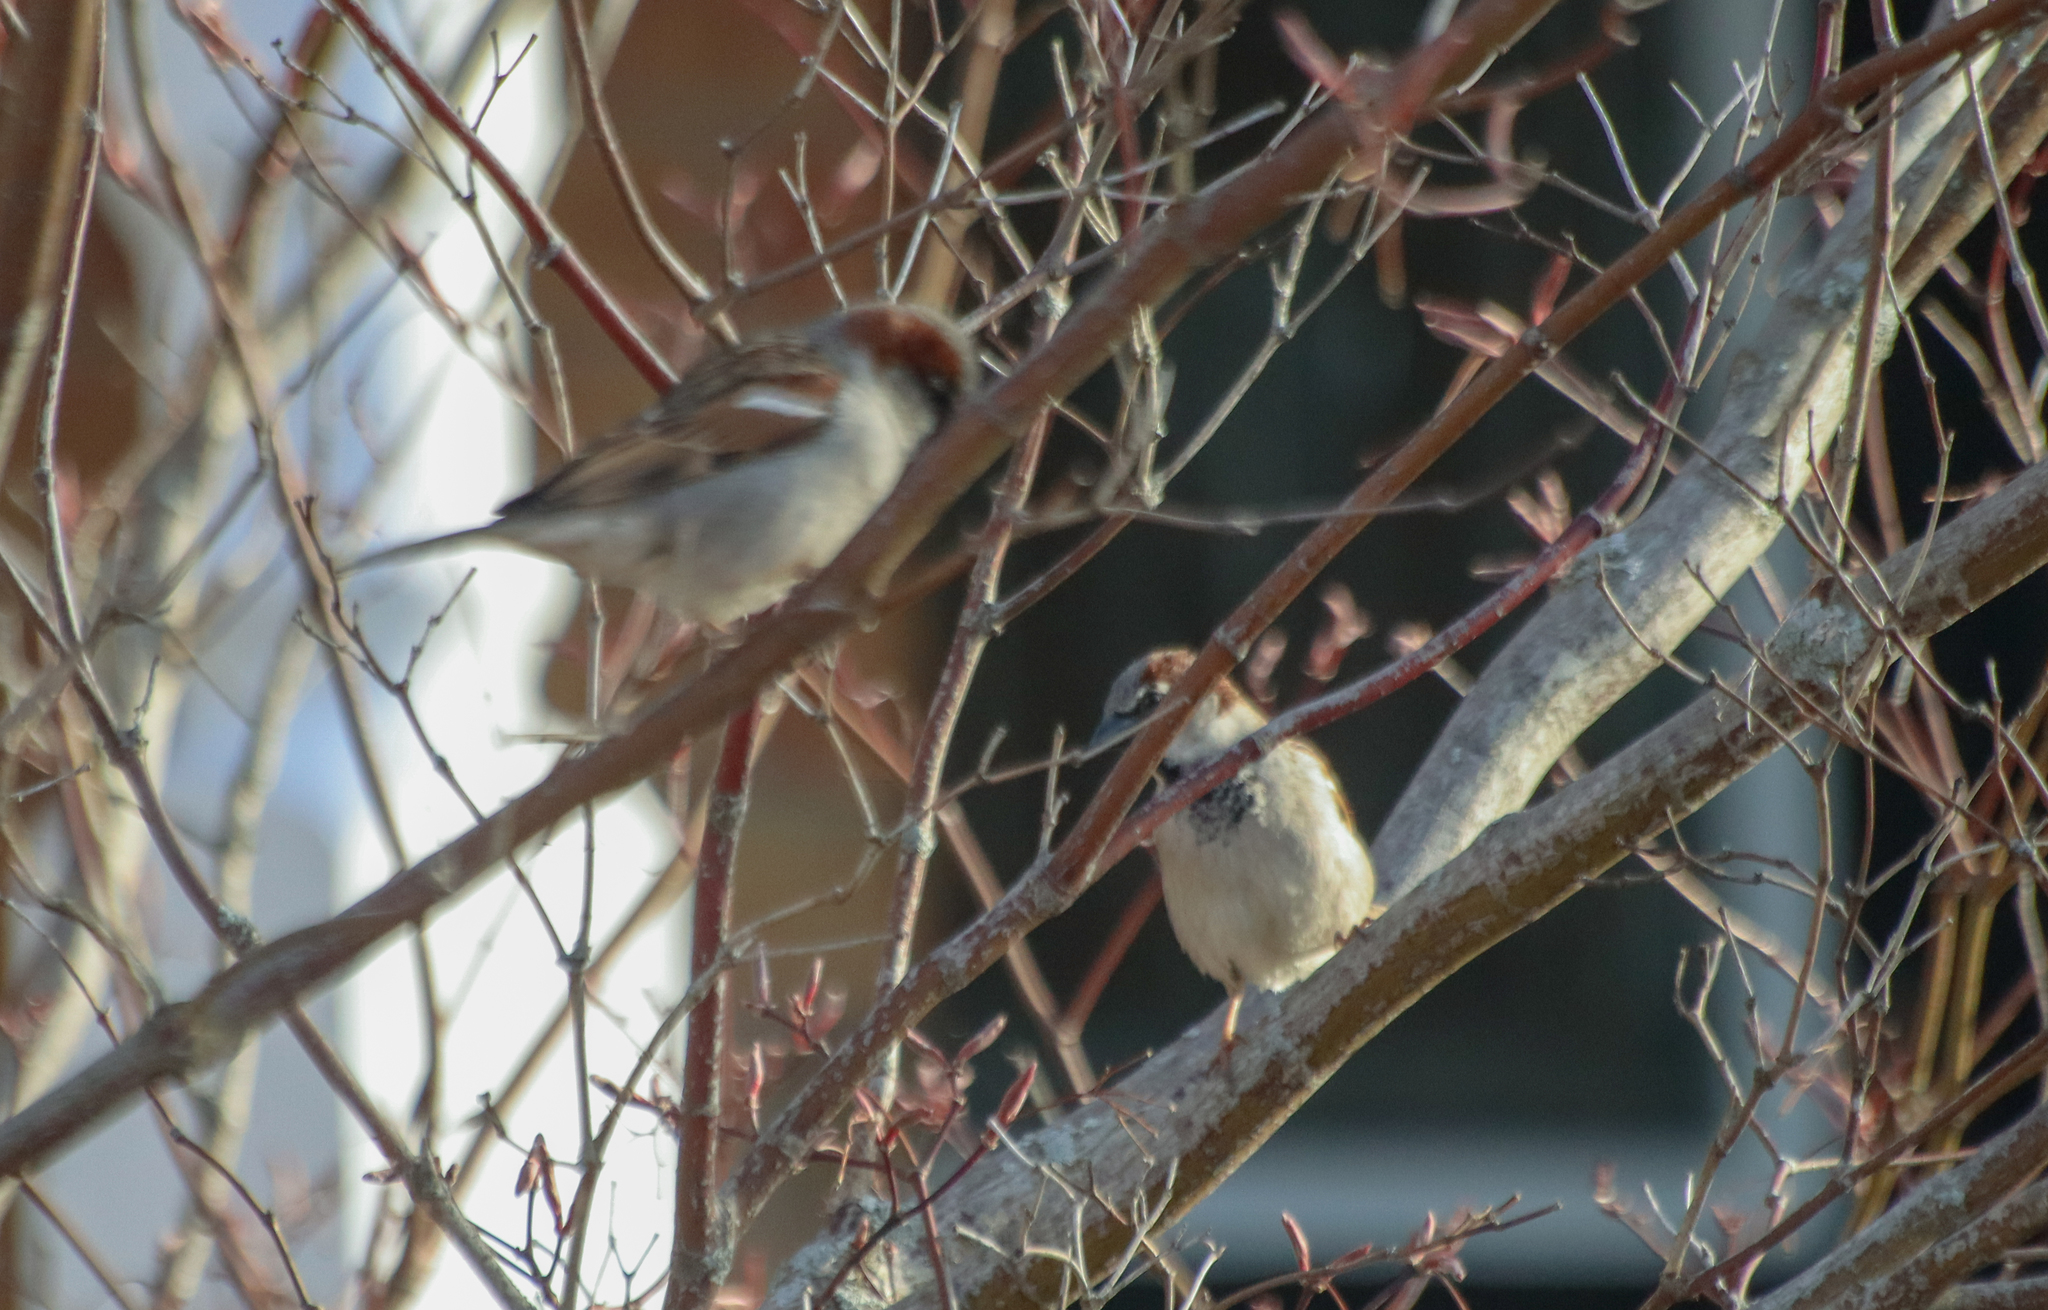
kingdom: Animalia
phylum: Chordata
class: Aves
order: Passeriformes
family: Passeridae
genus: Passer
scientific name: Passer domesticus
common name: House sparrow
